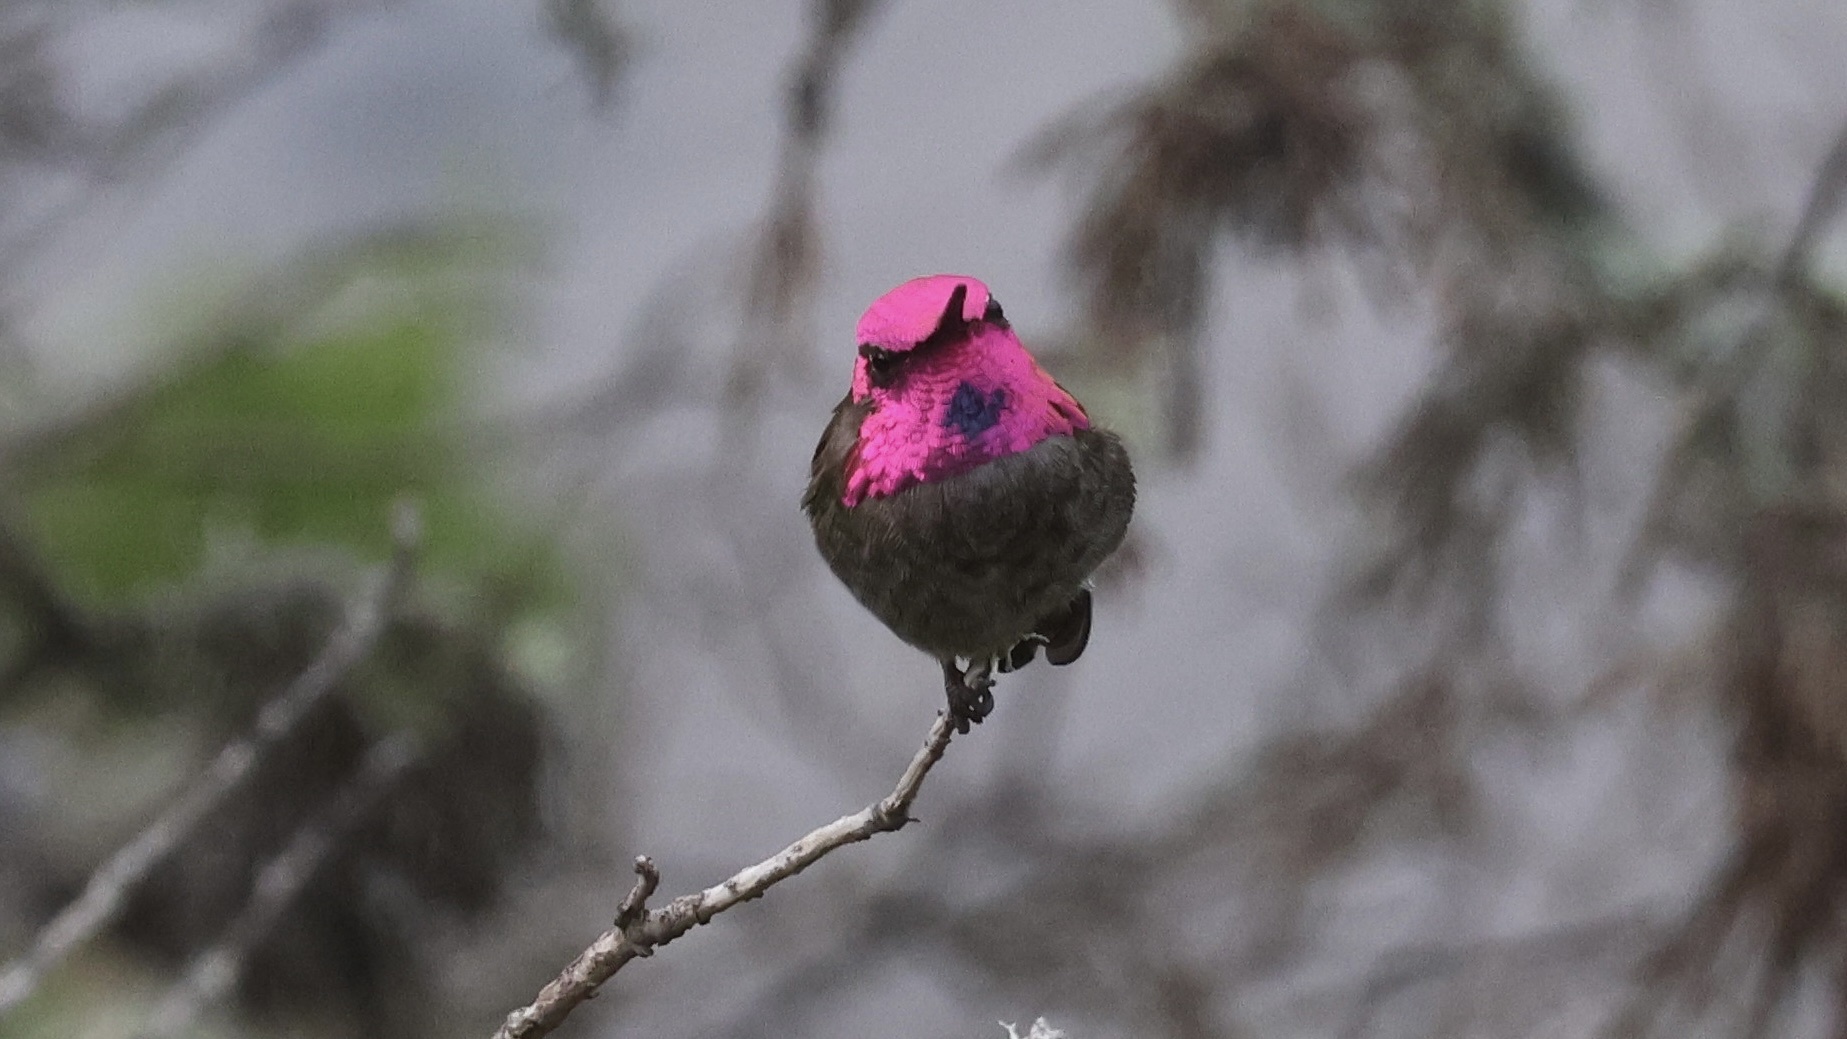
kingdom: Animalia
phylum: Chordata
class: Aves
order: Apodiformes
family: Trochilidae
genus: Calypte
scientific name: Calypte anna
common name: Anna's hummingbird
